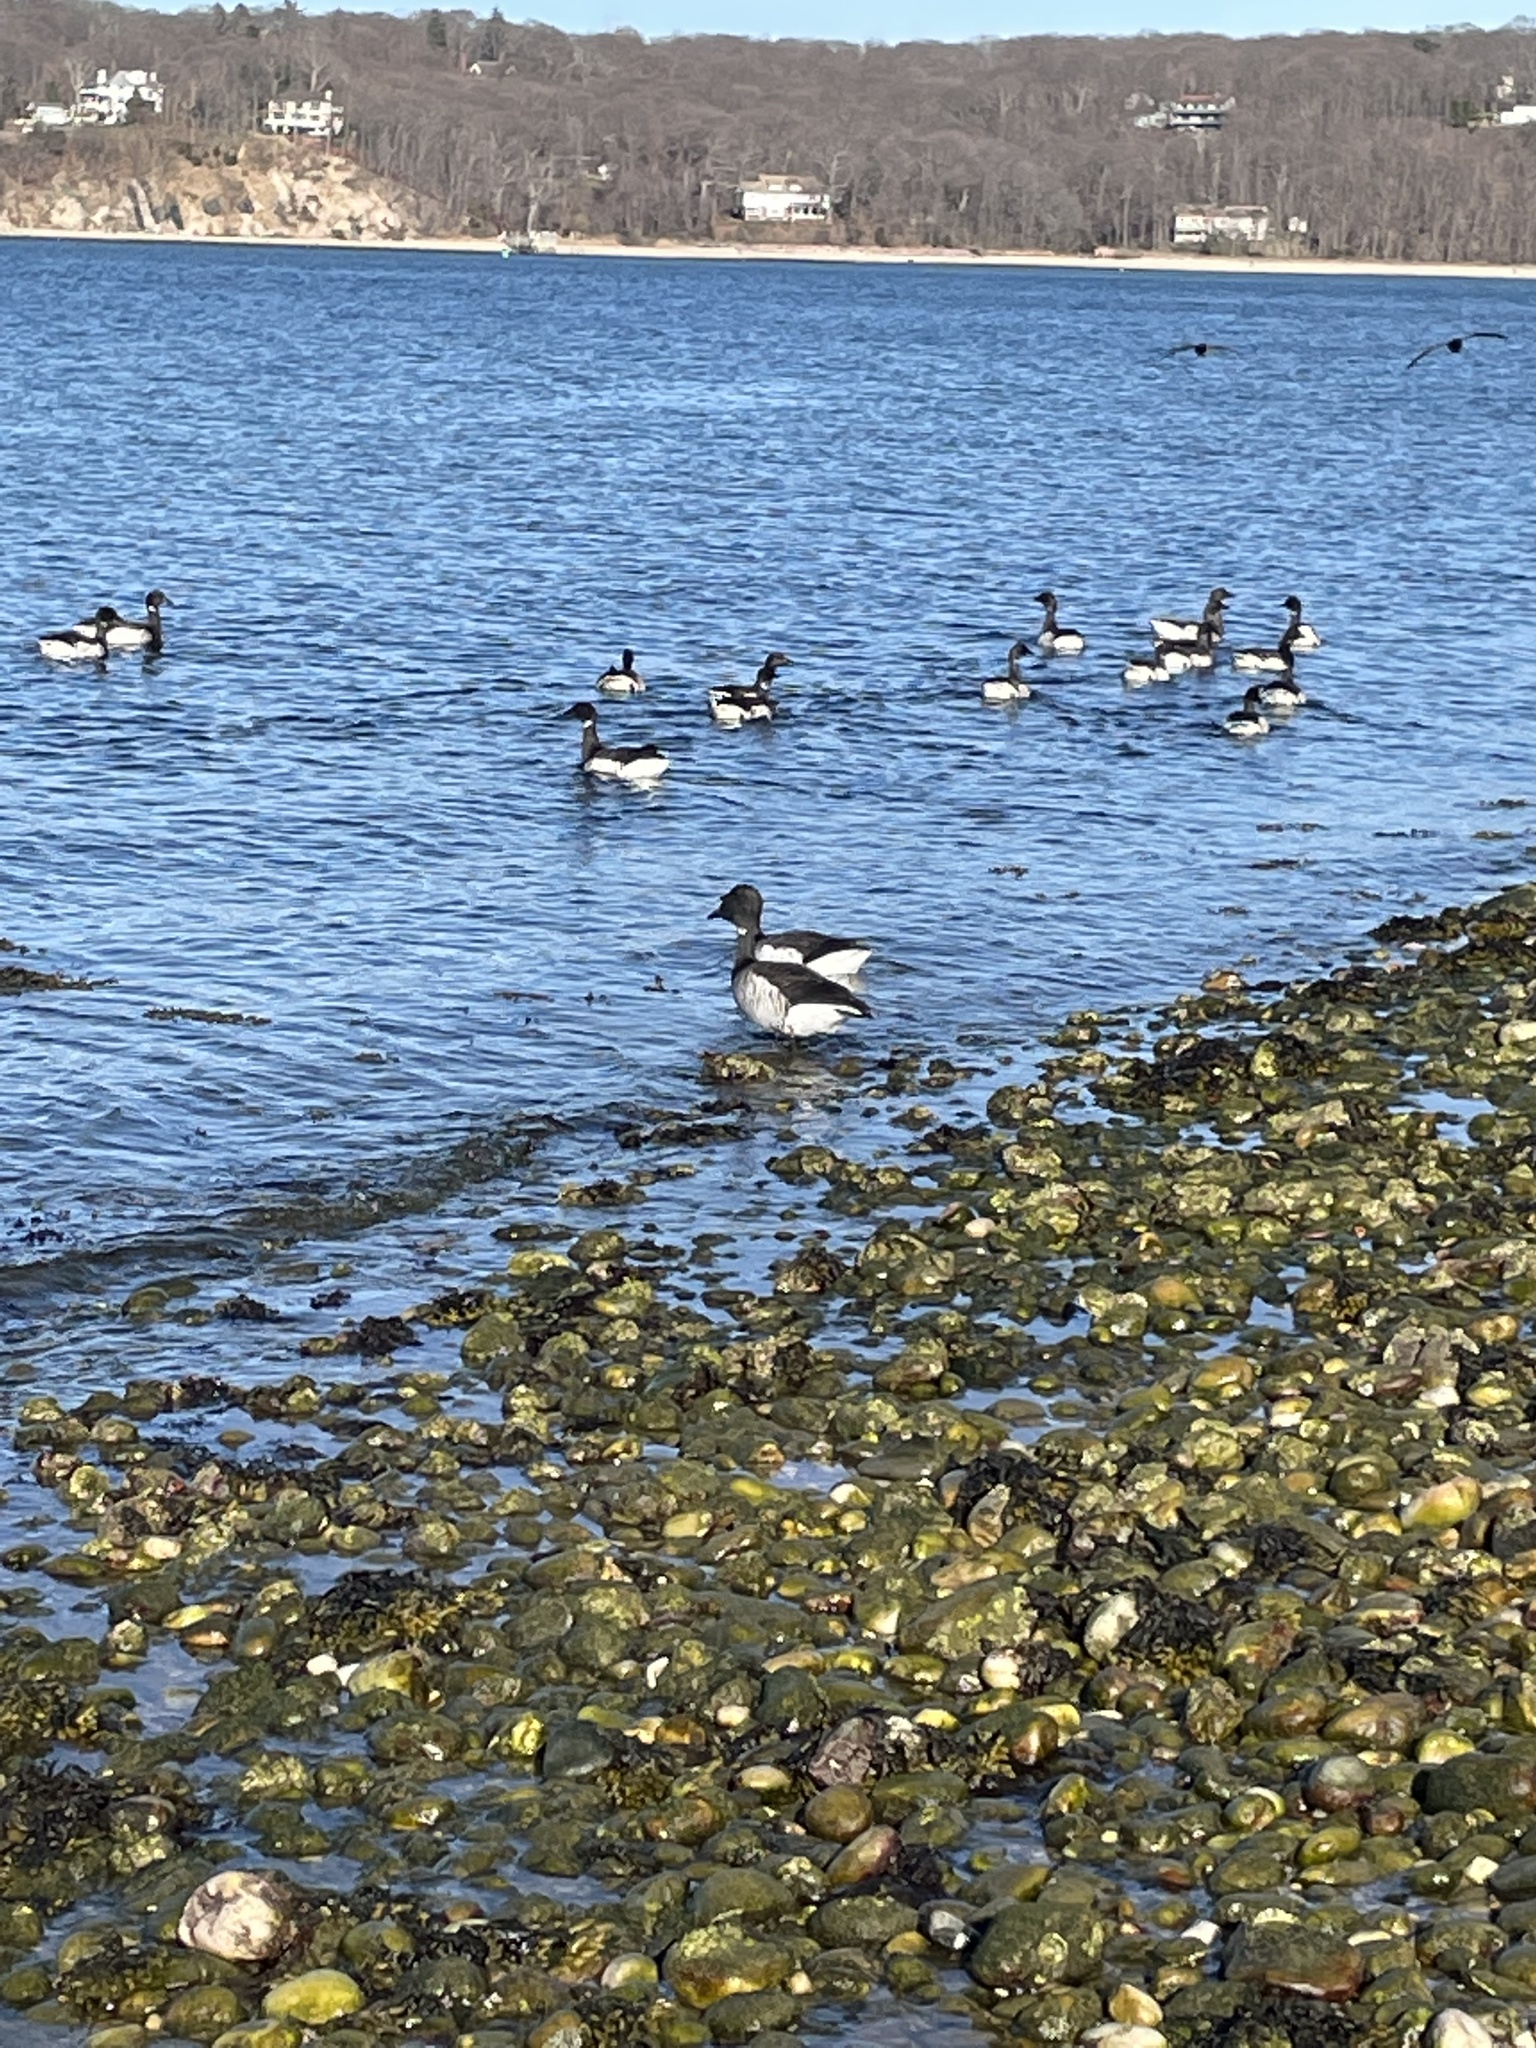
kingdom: Animalia
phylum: Chordata
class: Aves
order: Anseriformes
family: Anatidae
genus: Branta
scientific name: Branta bernicla
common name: Brant goose
